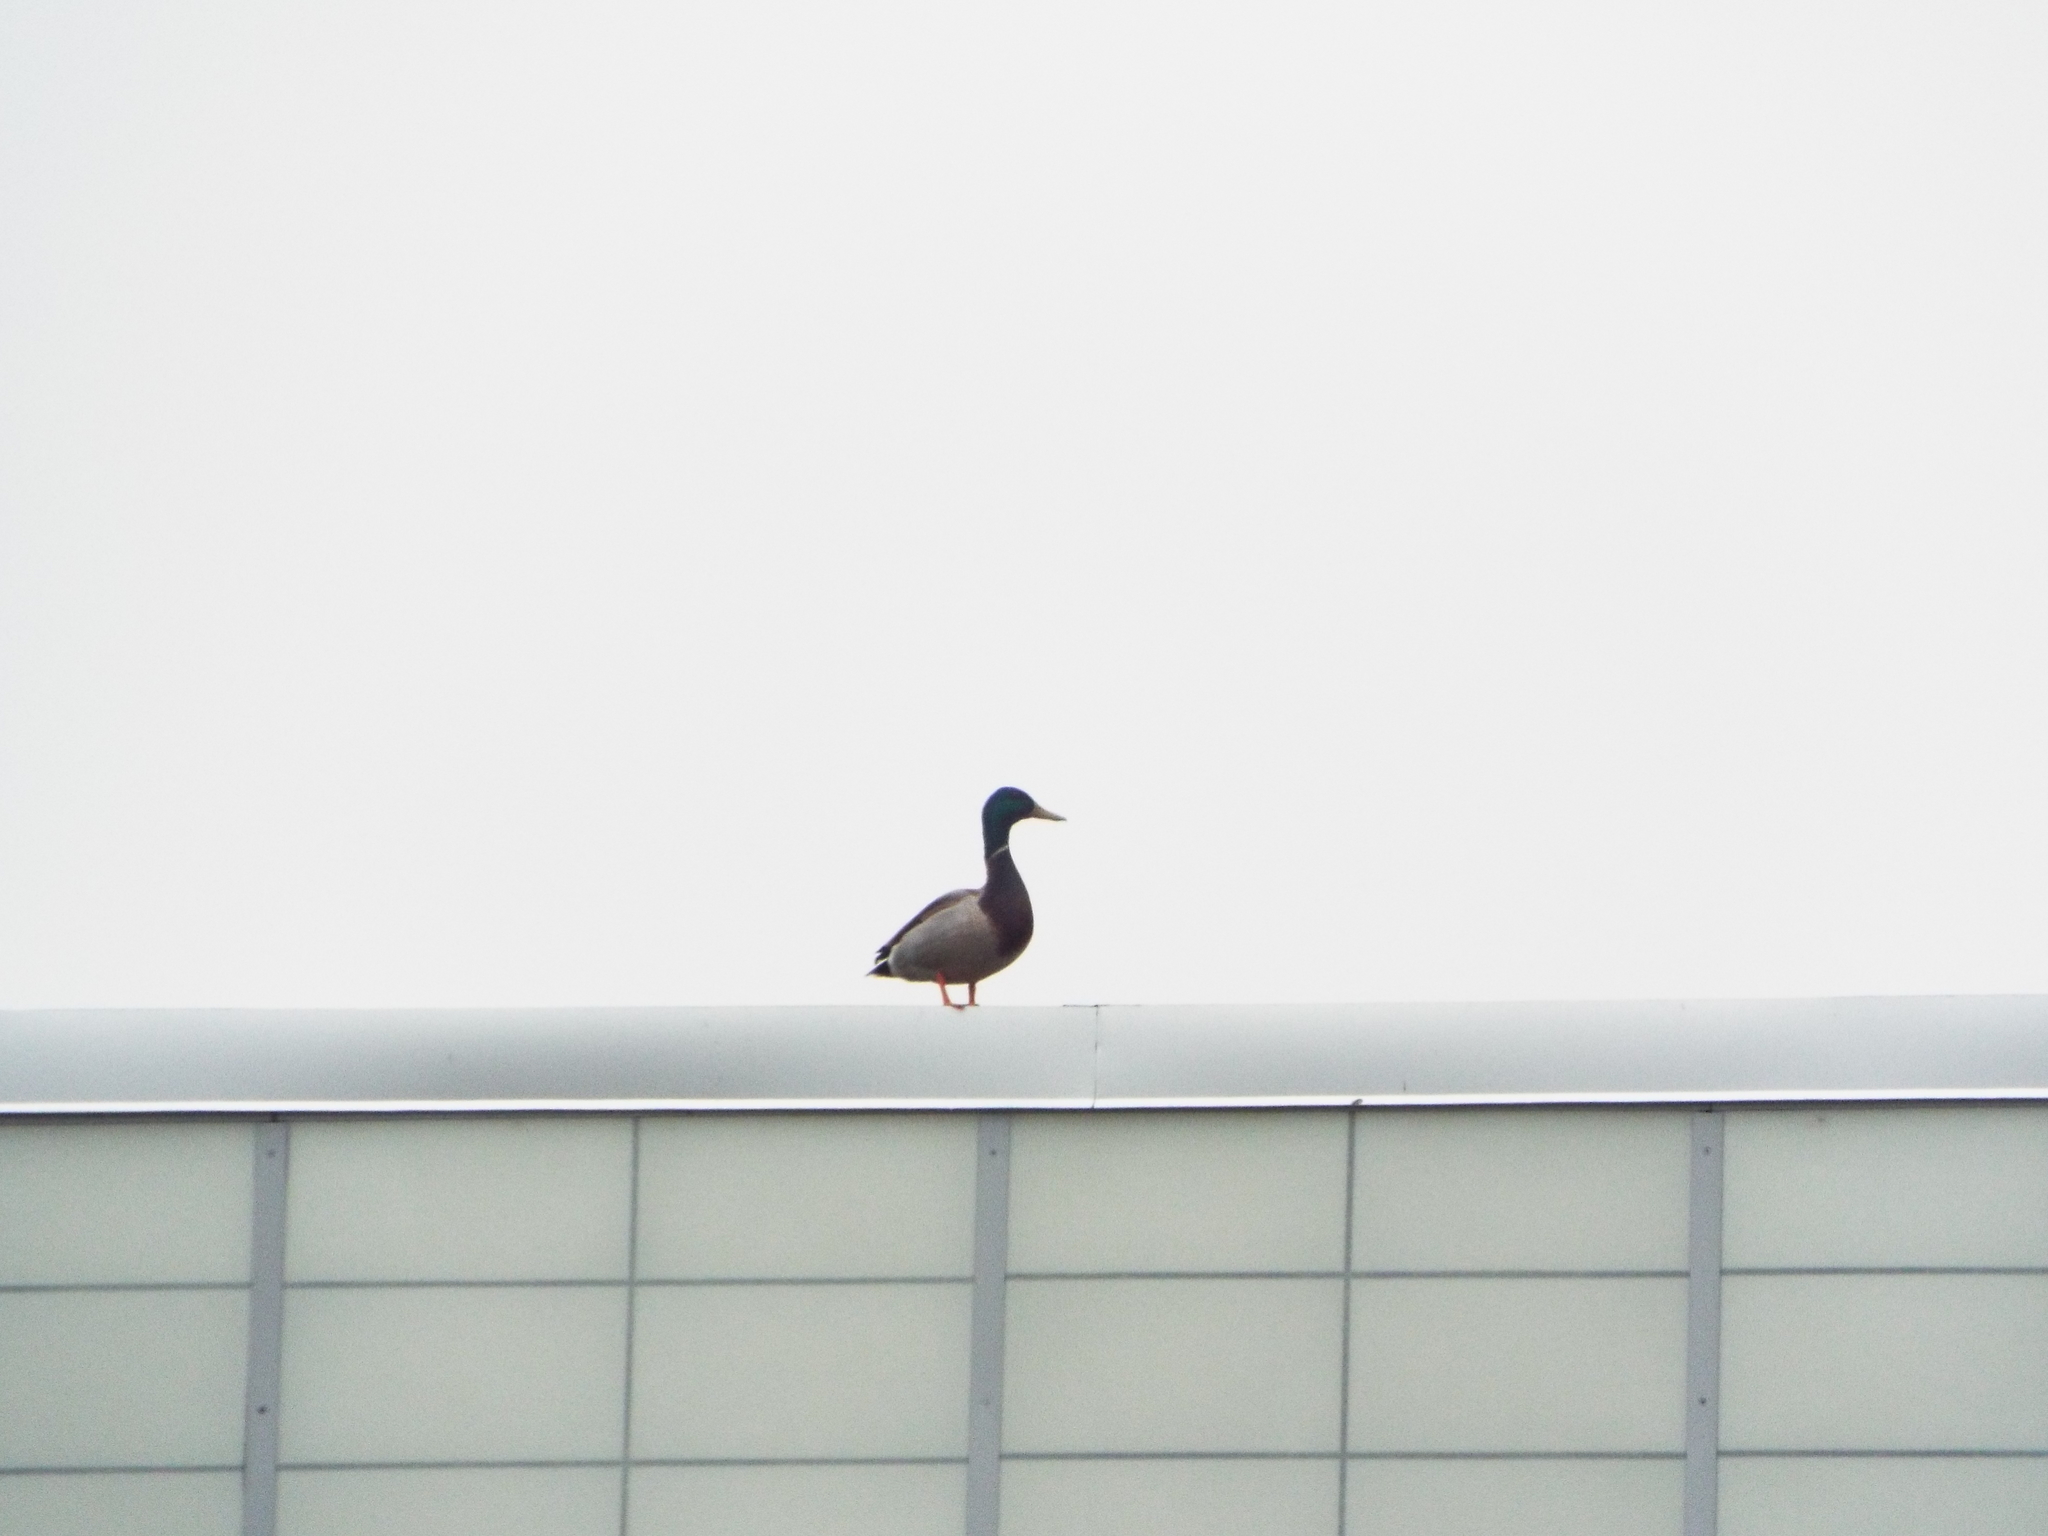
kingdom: Animalia
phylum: Chordata
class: Aves
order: Anseriformes
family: Anatidae
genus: Anas
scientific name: Anas platyrhynchos
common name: Mallard
